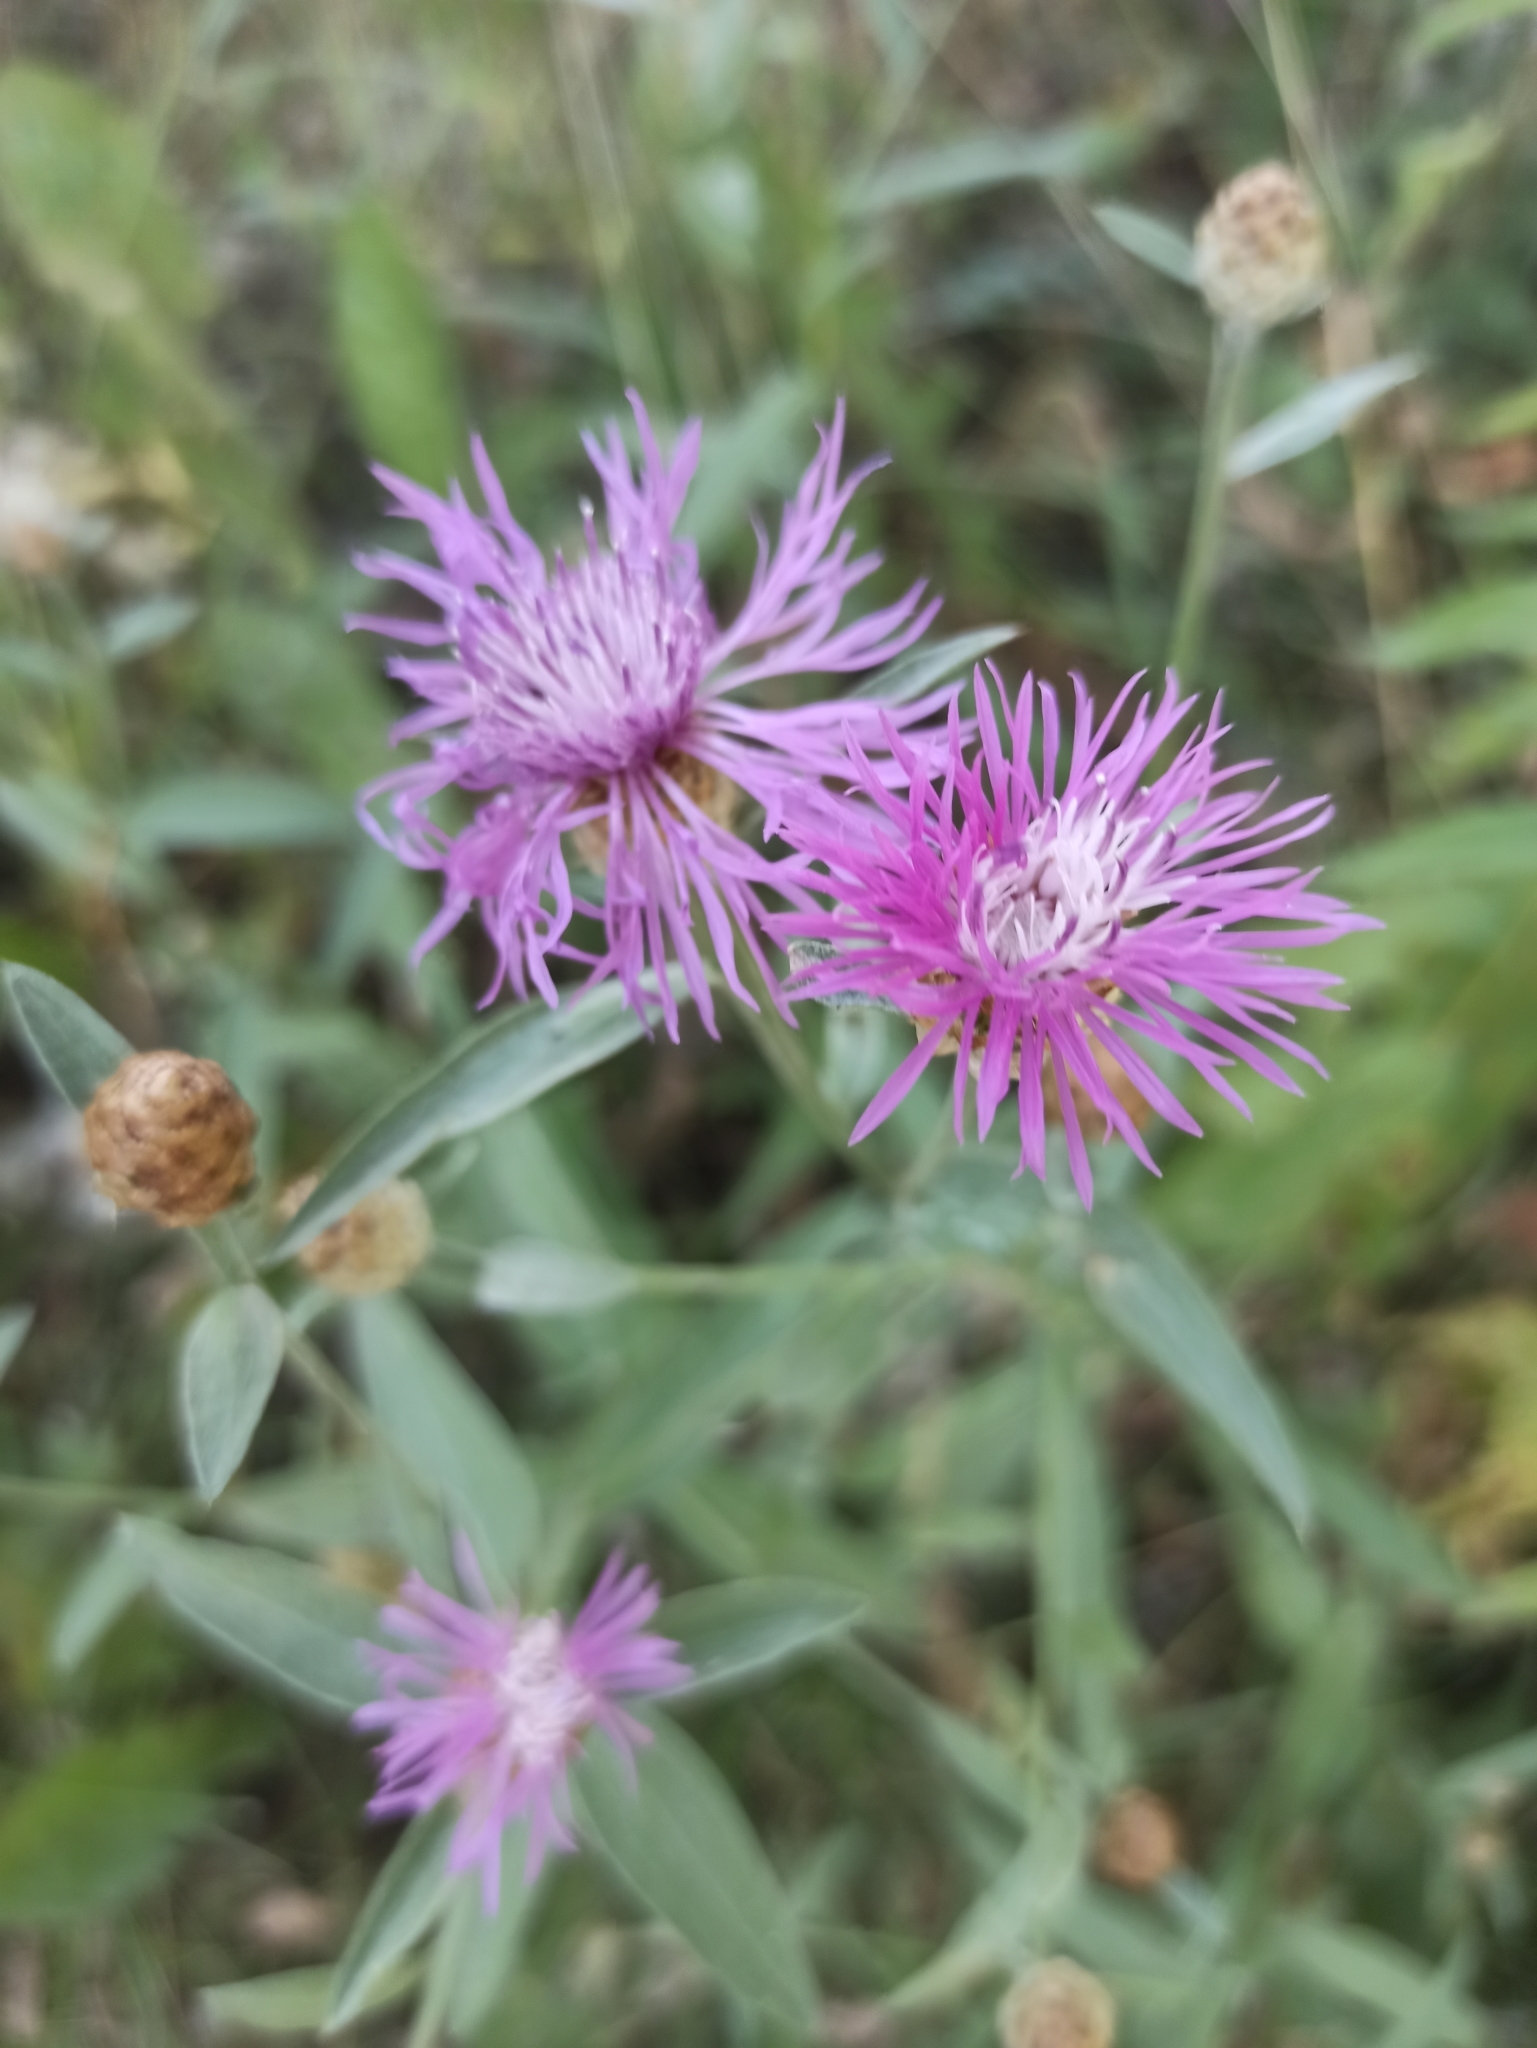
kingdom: Plantae
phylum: Tracheophyta
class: Magnoliopsida
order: Asterales
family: Asteraceae
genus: Centaurea
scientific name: Centaurea jacea
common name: Brown knapweed
